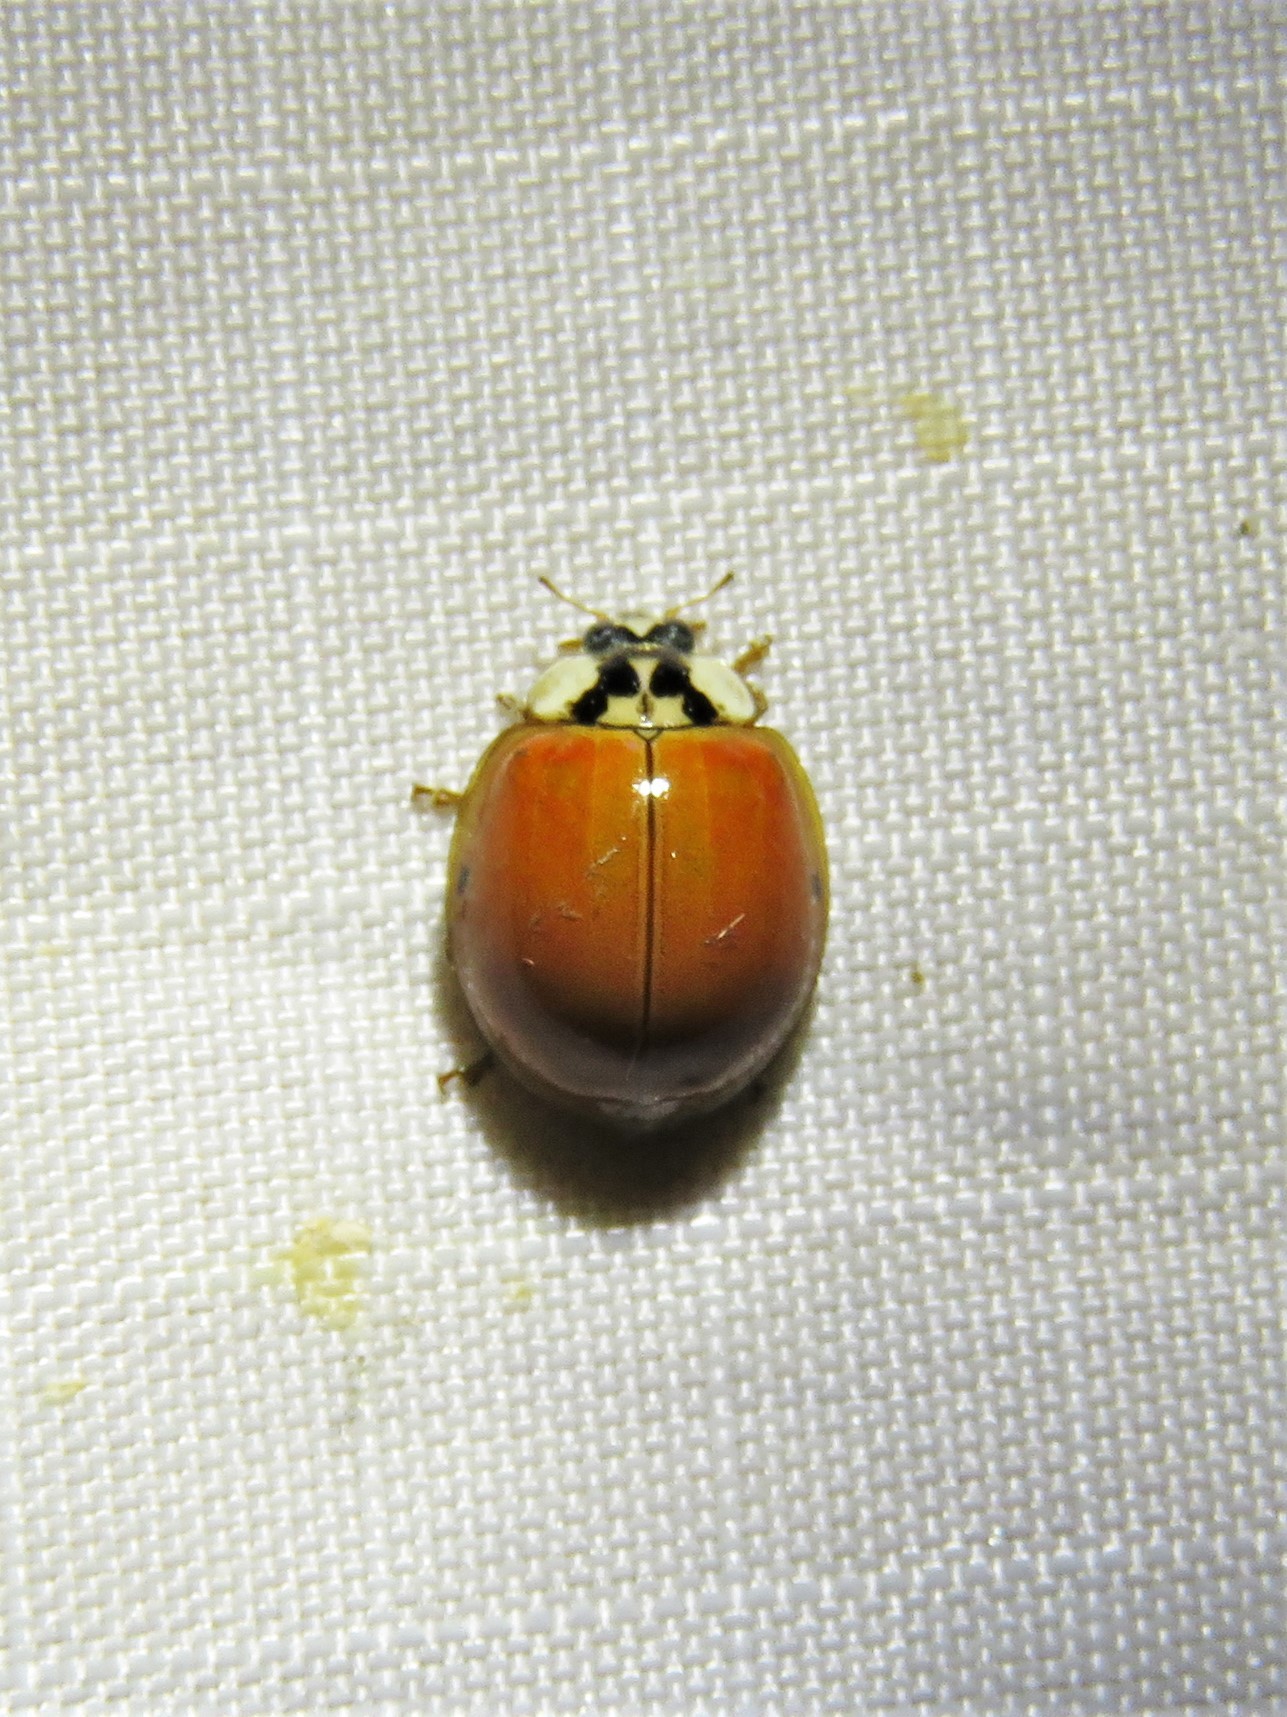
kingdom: Animalia
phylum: Arthropoda
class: Insecta
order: Coleoptera
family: Coccinellidae
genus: Harmonia
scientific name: Harmonia axyridis
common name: Harlequin ladybird
